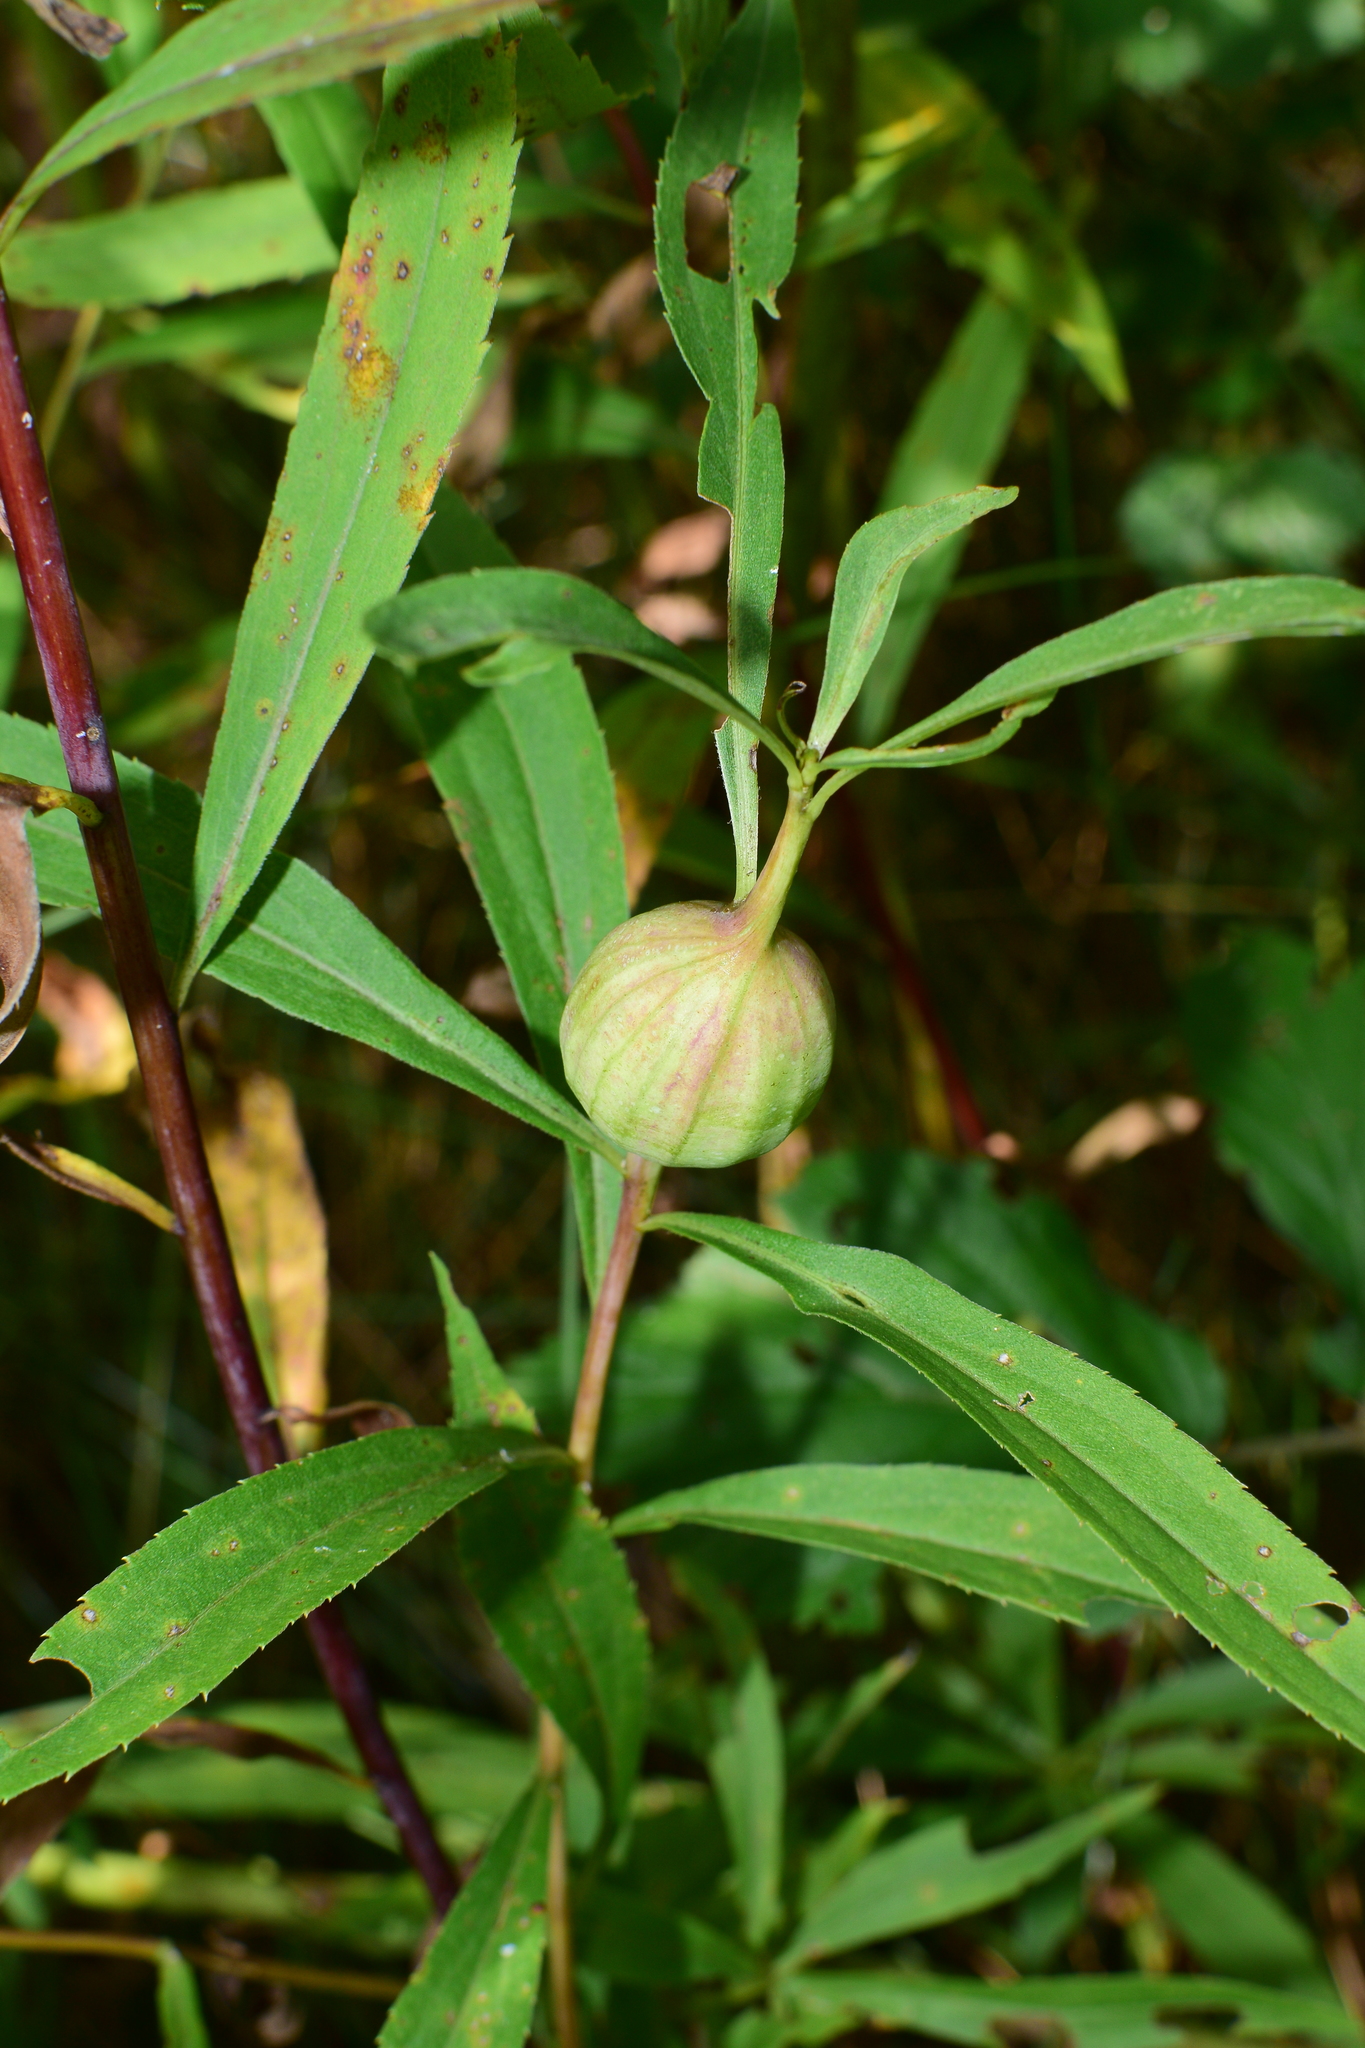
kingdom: Animalia
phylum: Arthropoda
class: Insecta
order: Diptera
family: Tephritidae
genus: Eurosta
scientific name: Eurosta solidaginis
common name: Goldenrod gall fly
